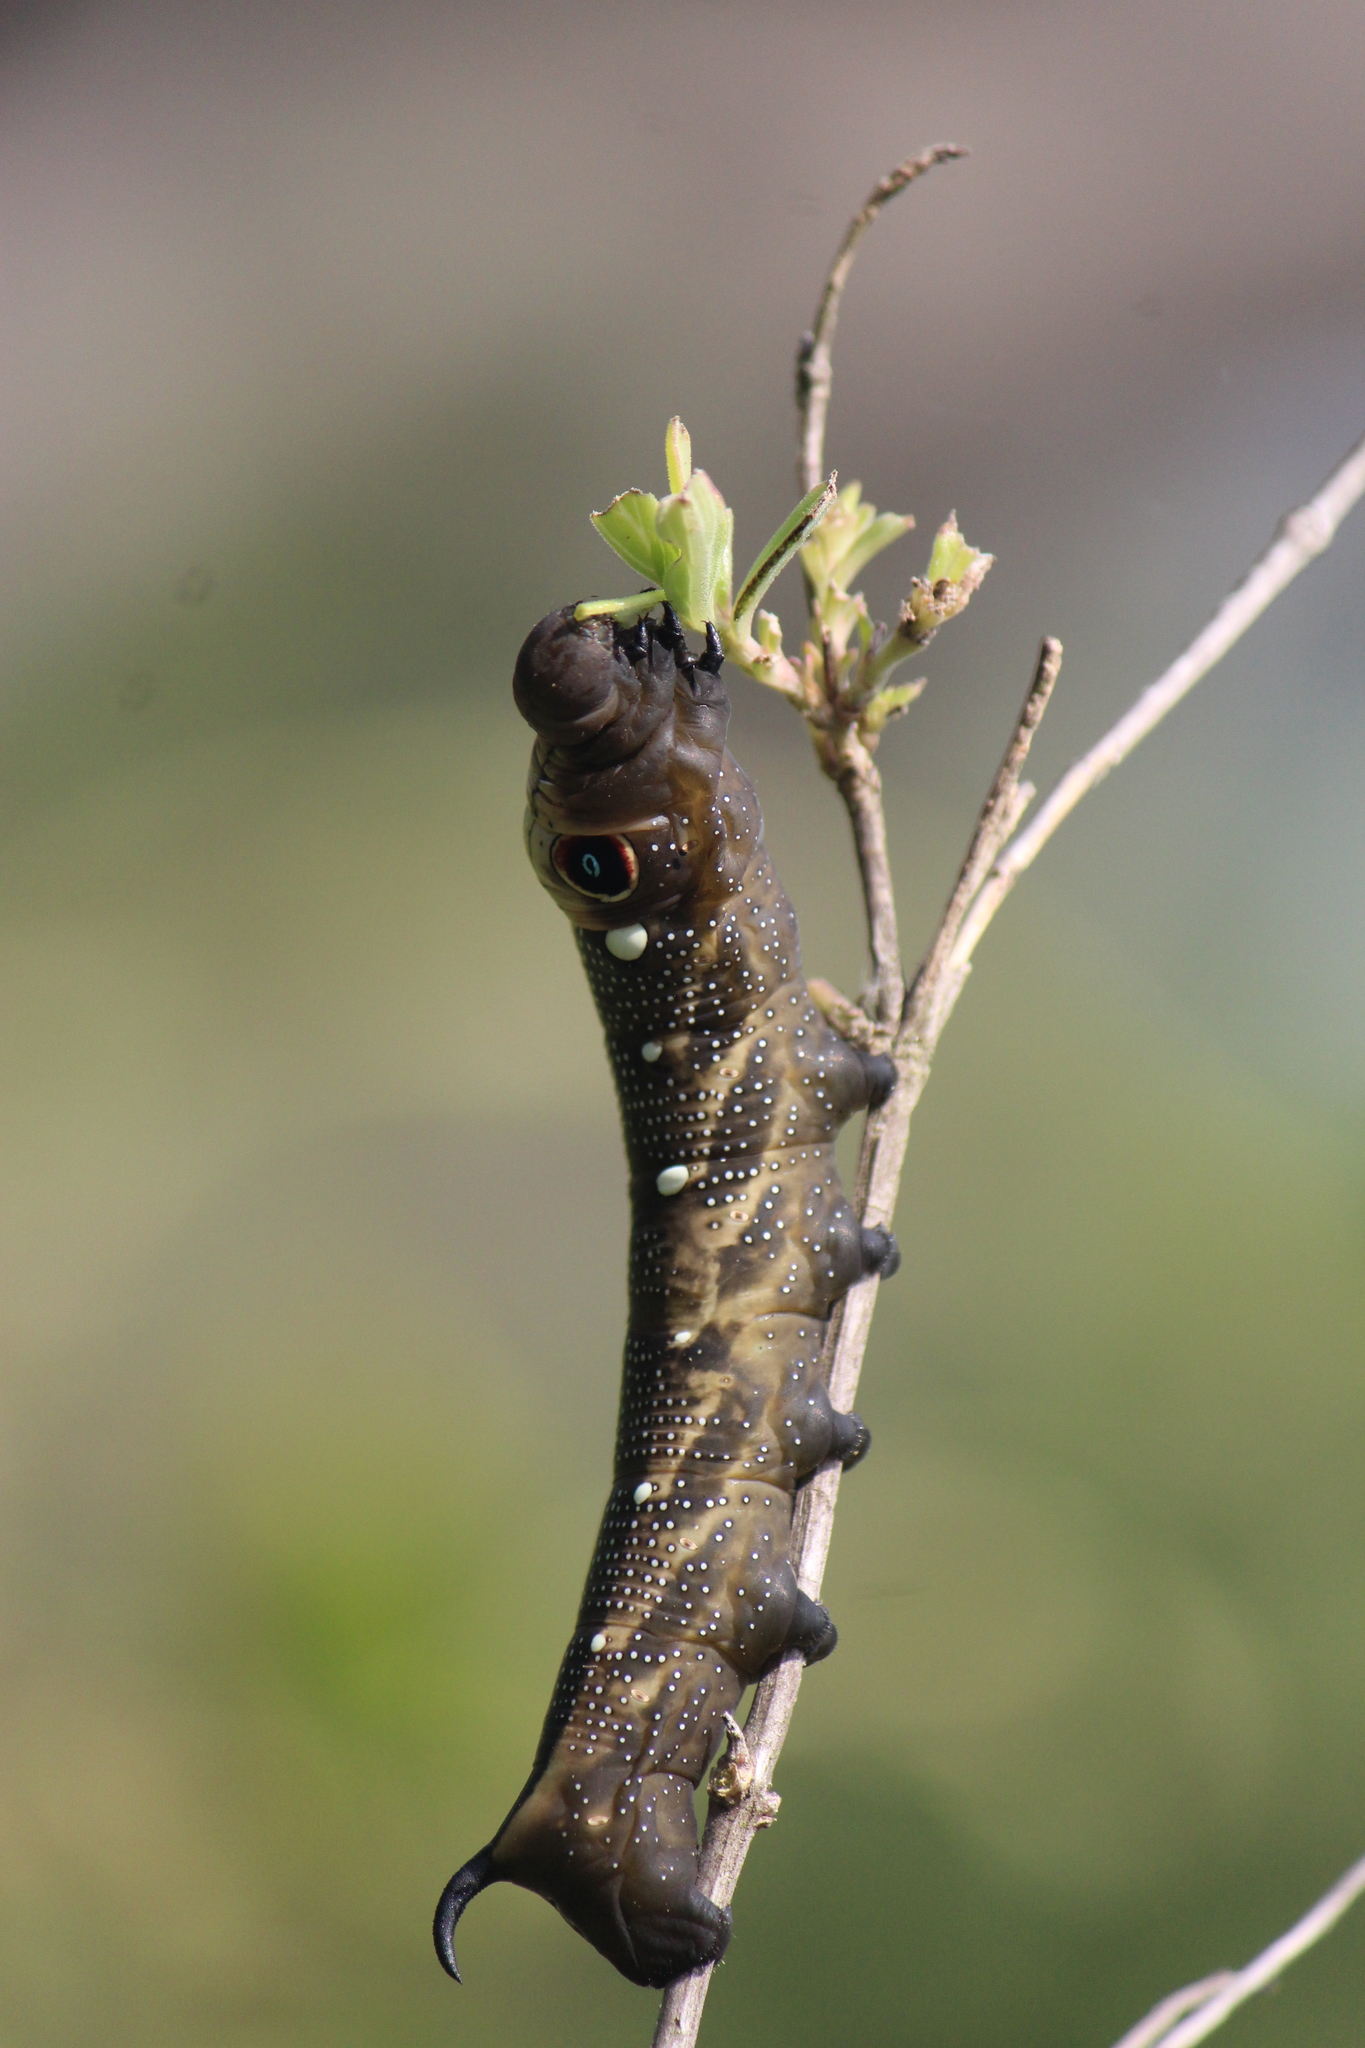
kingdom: Animalia
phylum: Arthropoda
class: Insecta
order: Lepidoptera
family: Sphingidae
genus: Xylophanes
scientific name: Xylophanes falco
